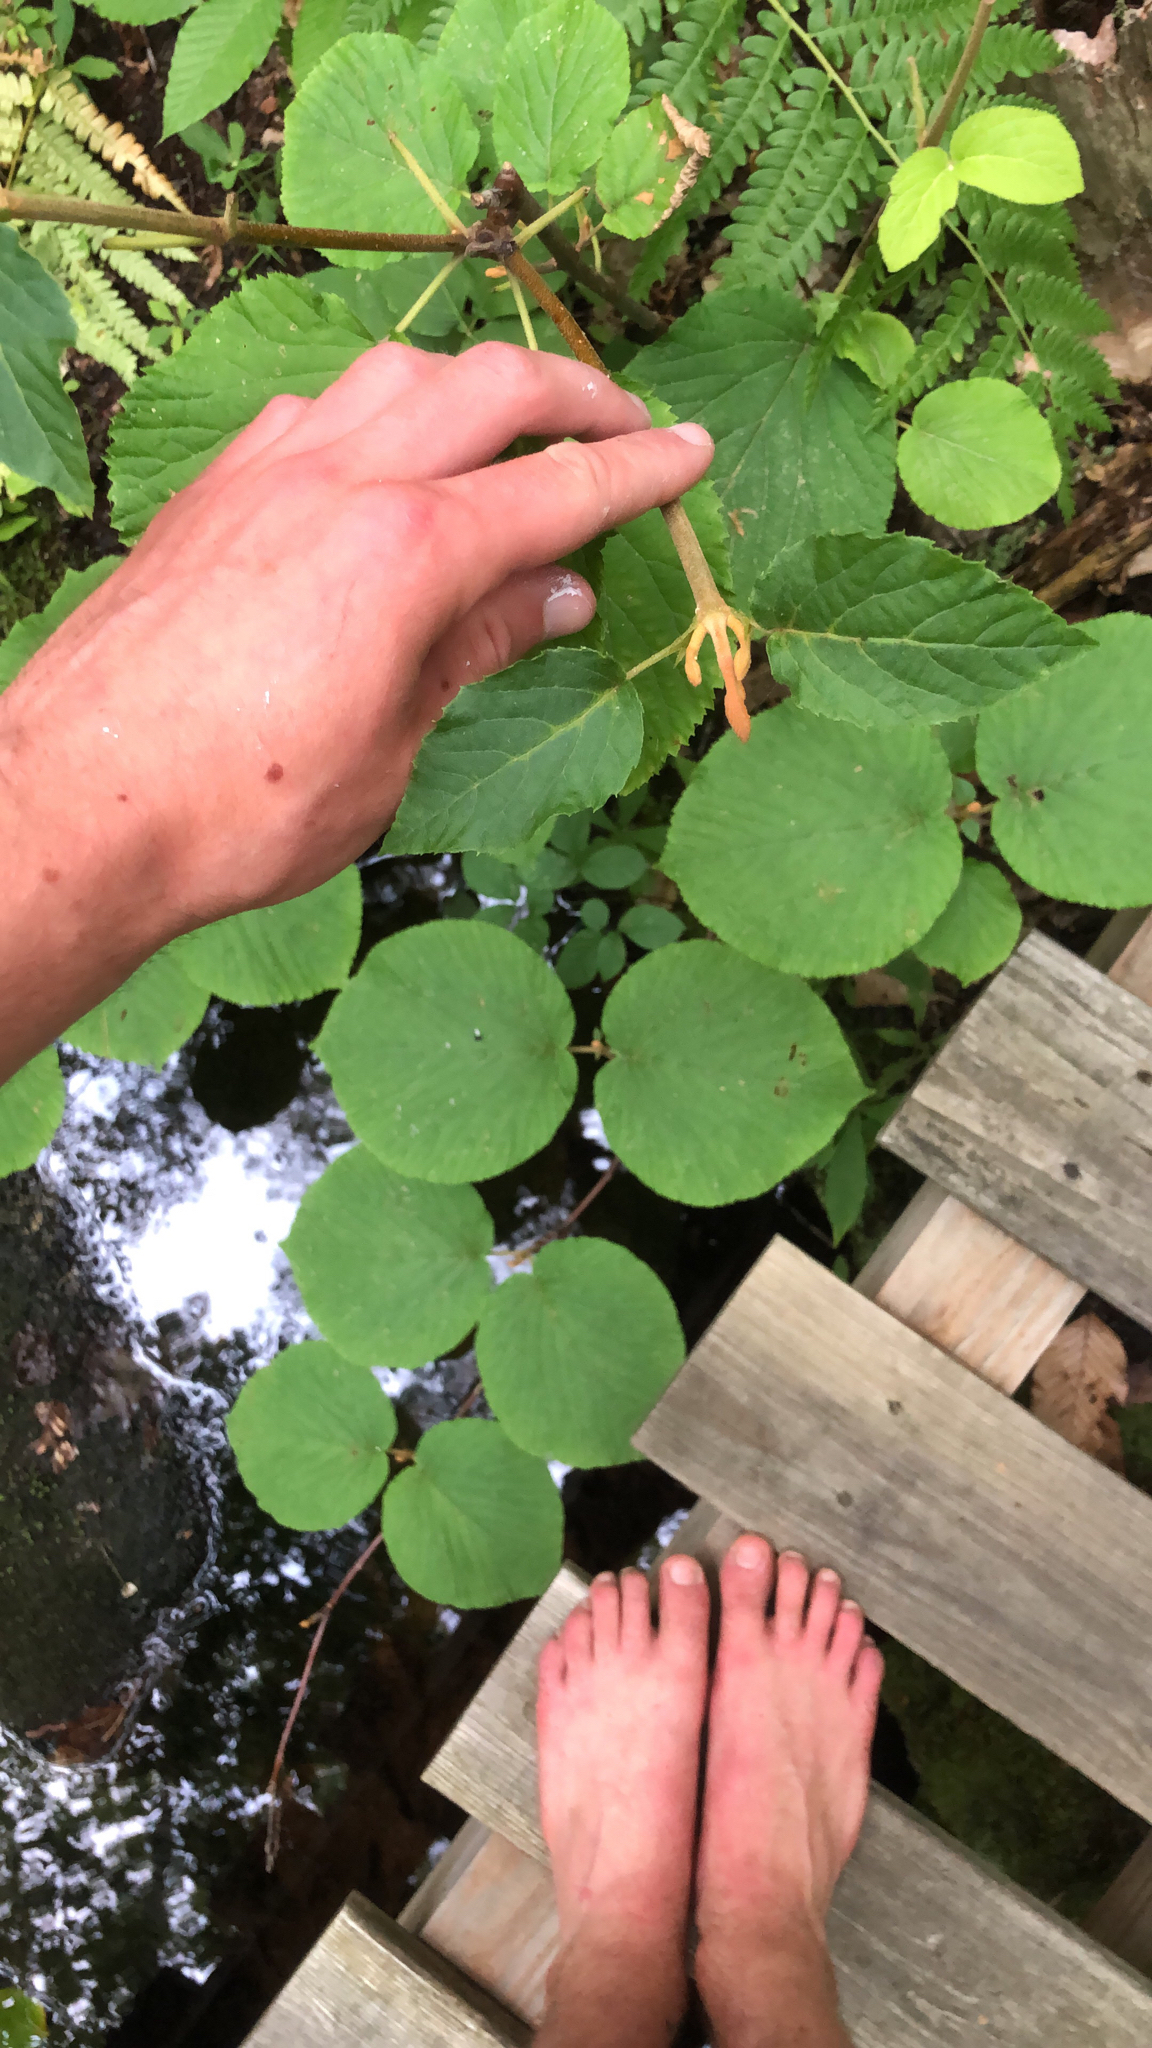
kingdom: Plantae
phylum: Tracheophyta
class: Magnoliopsida
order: Dipsacales
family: Viburnaceae
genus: Viburnum
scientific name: Viburnum lantanoides
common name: Hobblebush
